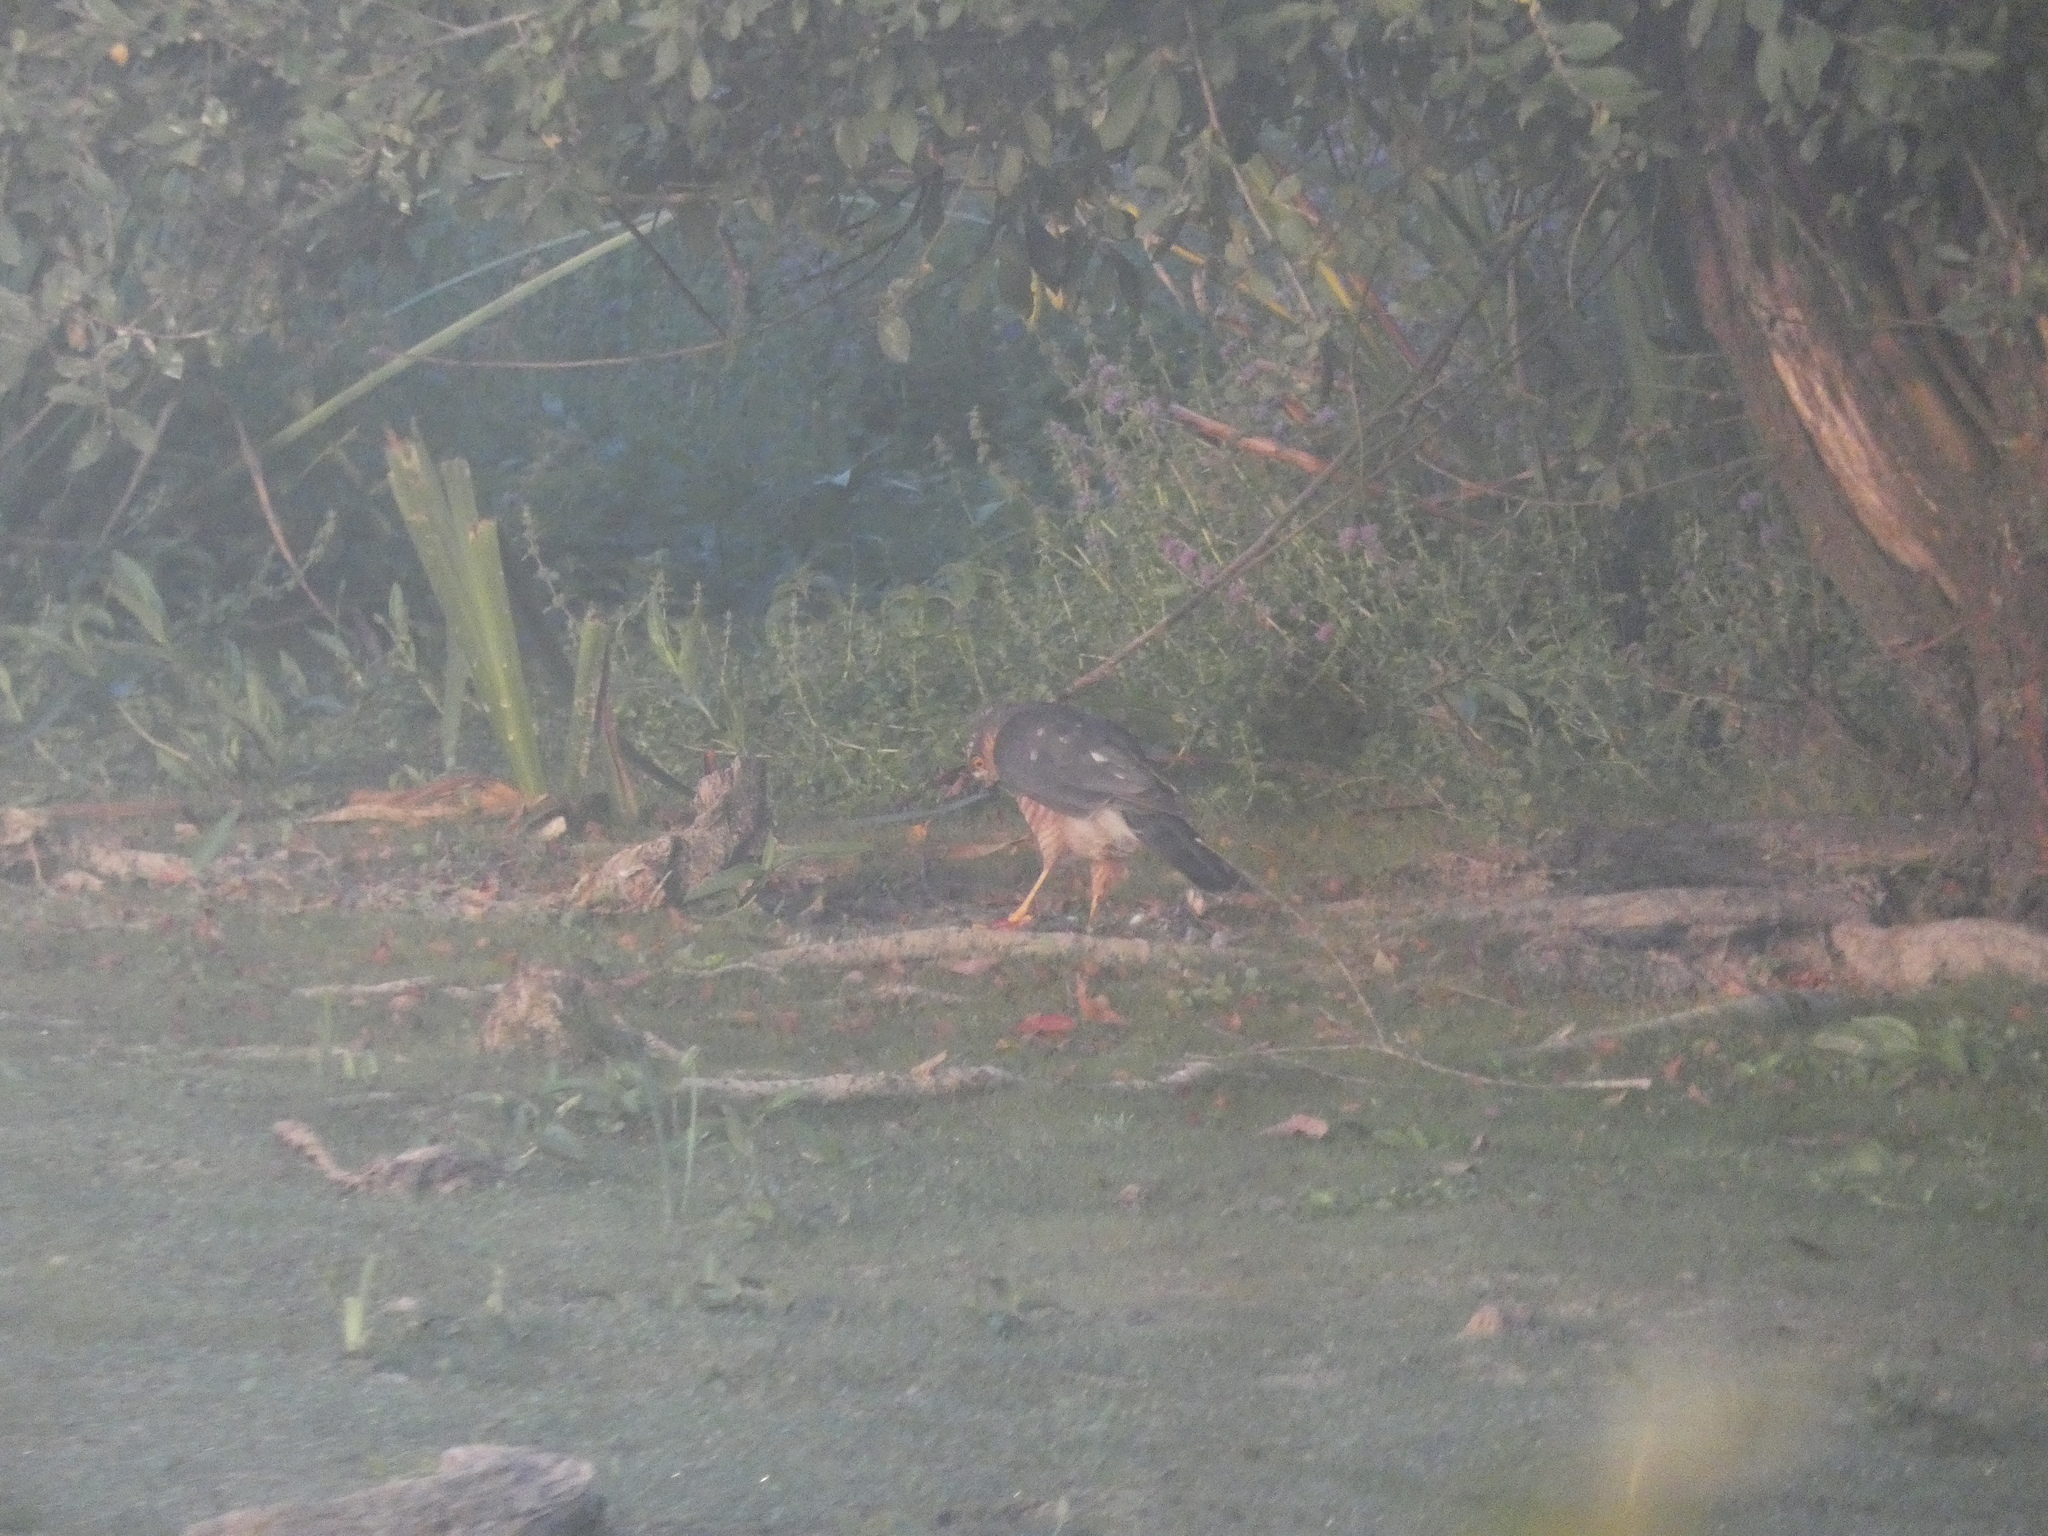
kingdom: Animalia
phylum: Chordata
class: Aves
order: Accipitriformes
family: Accipitridae
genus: Accipiter
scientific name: Accipiter nisus
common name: Eurasian sparrowhawk
